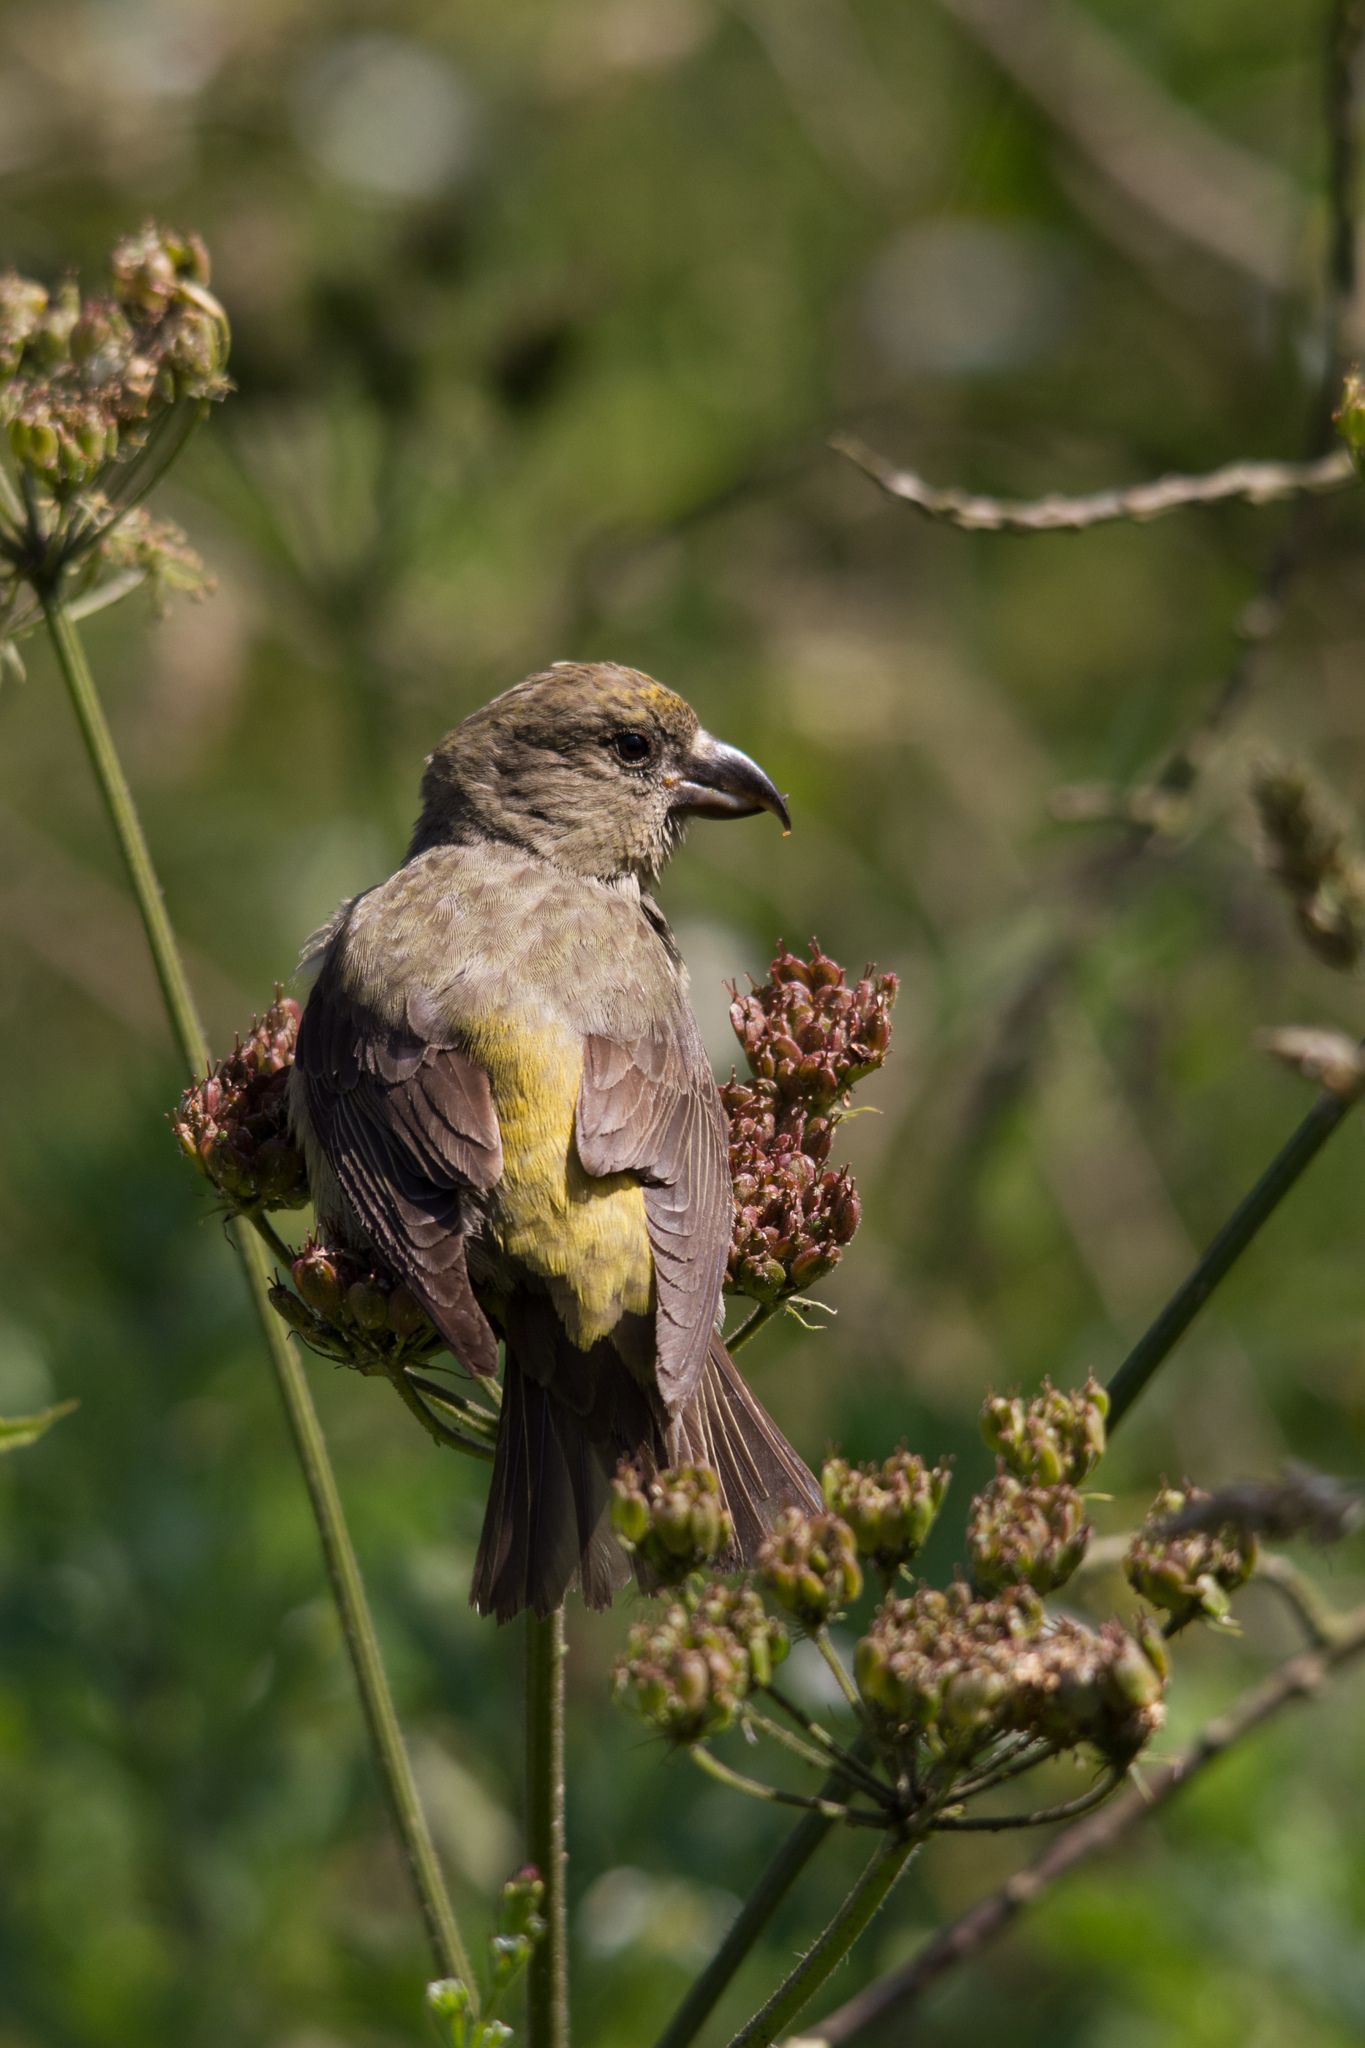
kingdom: Animalia
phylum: Chordata
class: Aves
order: Passeriformes
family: Fringillidae
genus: Loxia
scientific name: Loxia curvirostra
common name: Red crossbill
